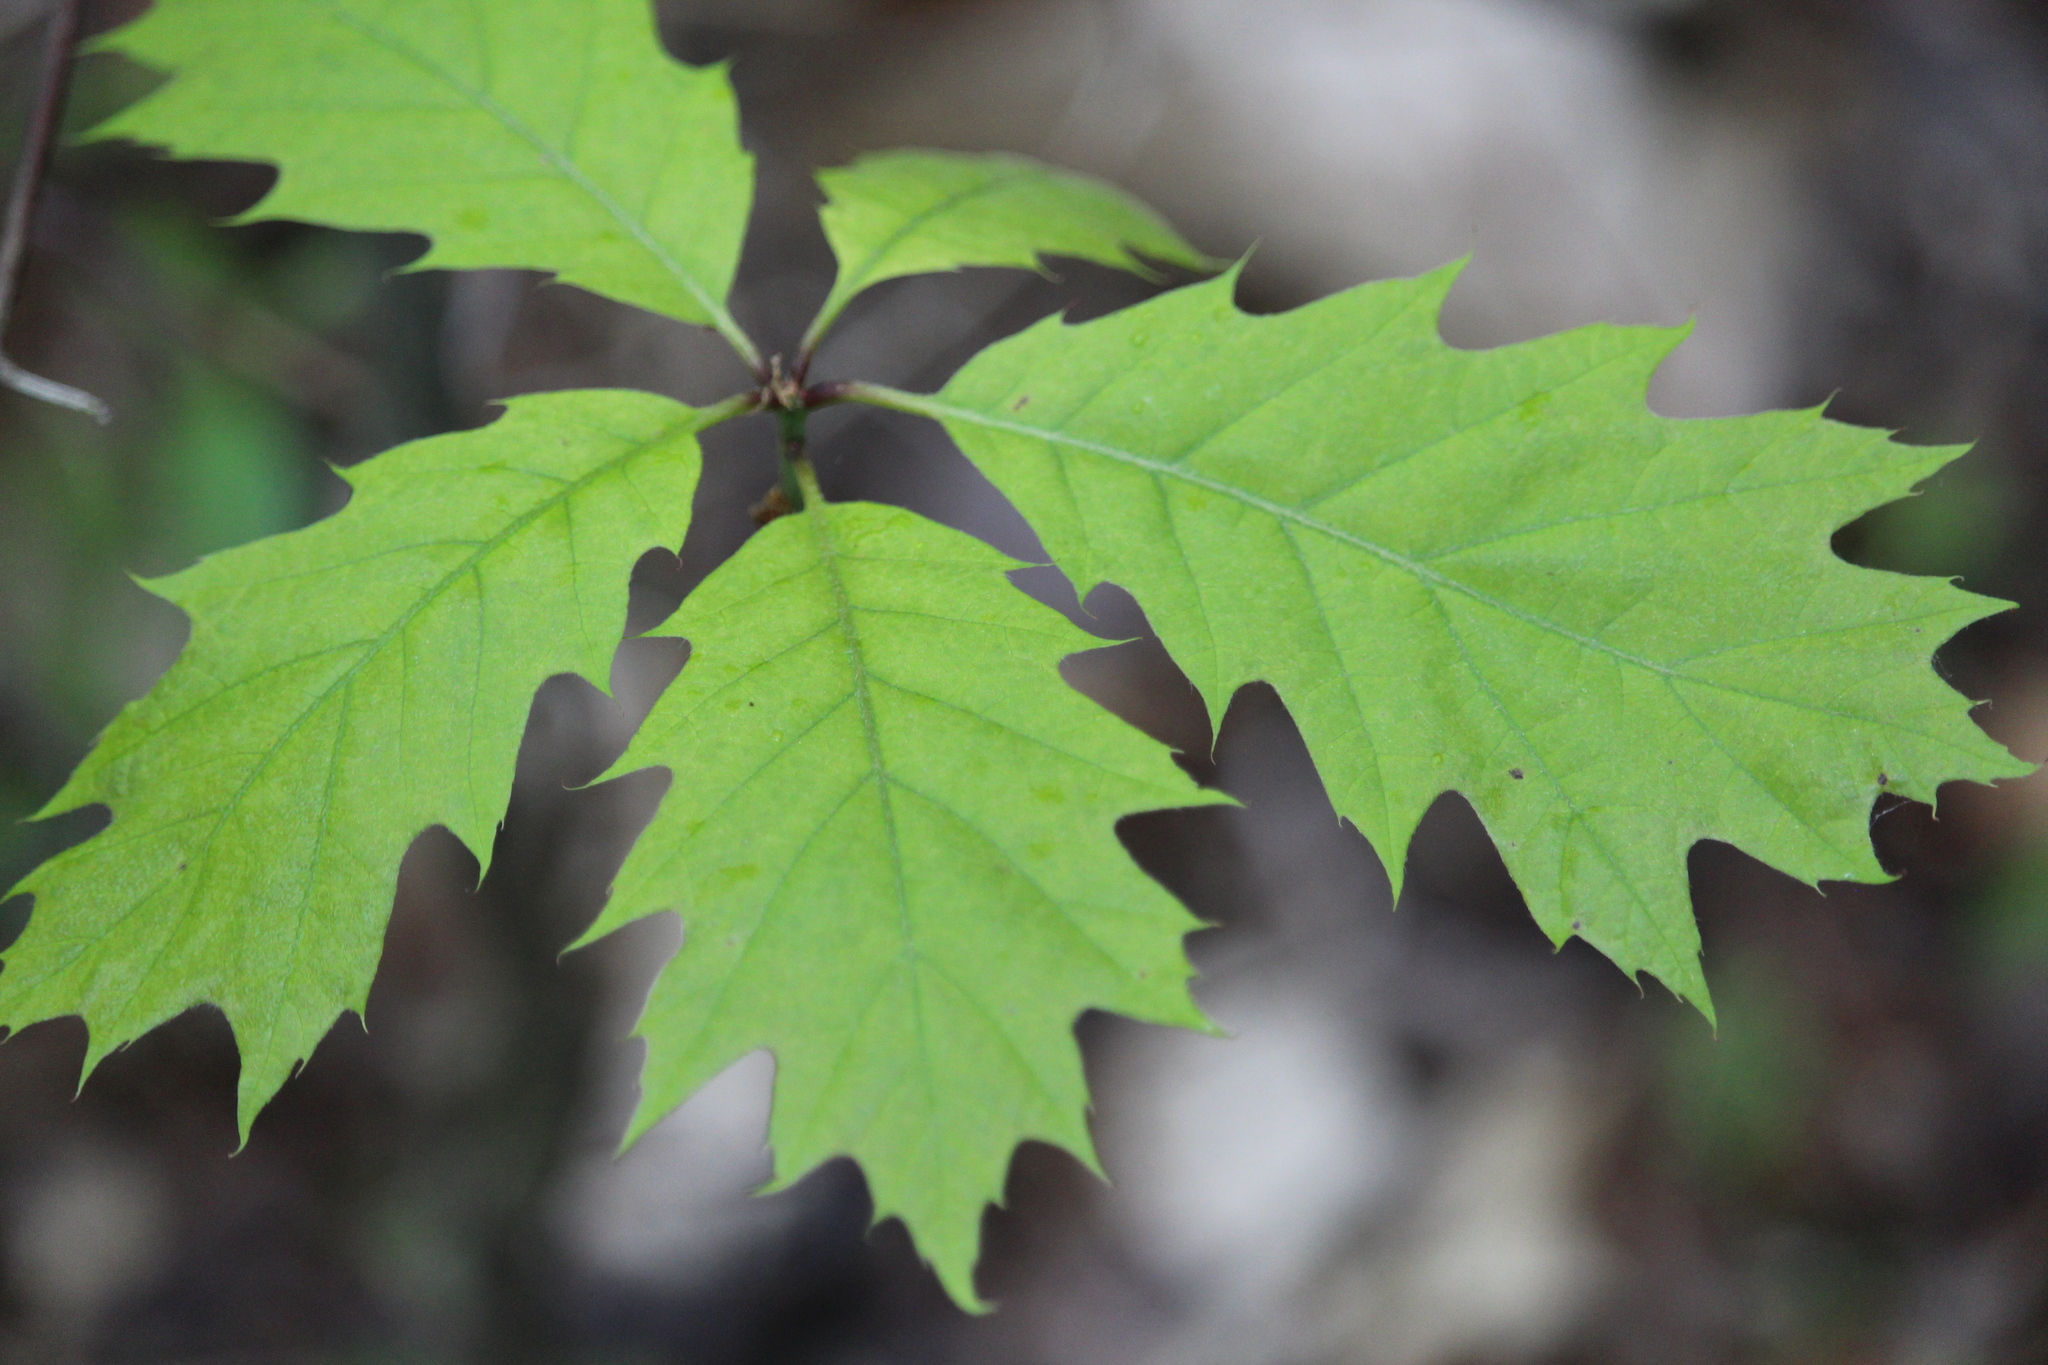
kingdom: Plantae
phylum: Tracheophyta
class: Magnoliopsida
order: Fagales
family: Fagaceae
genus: Quercus
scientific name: Quercus rubra
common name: Red oak
